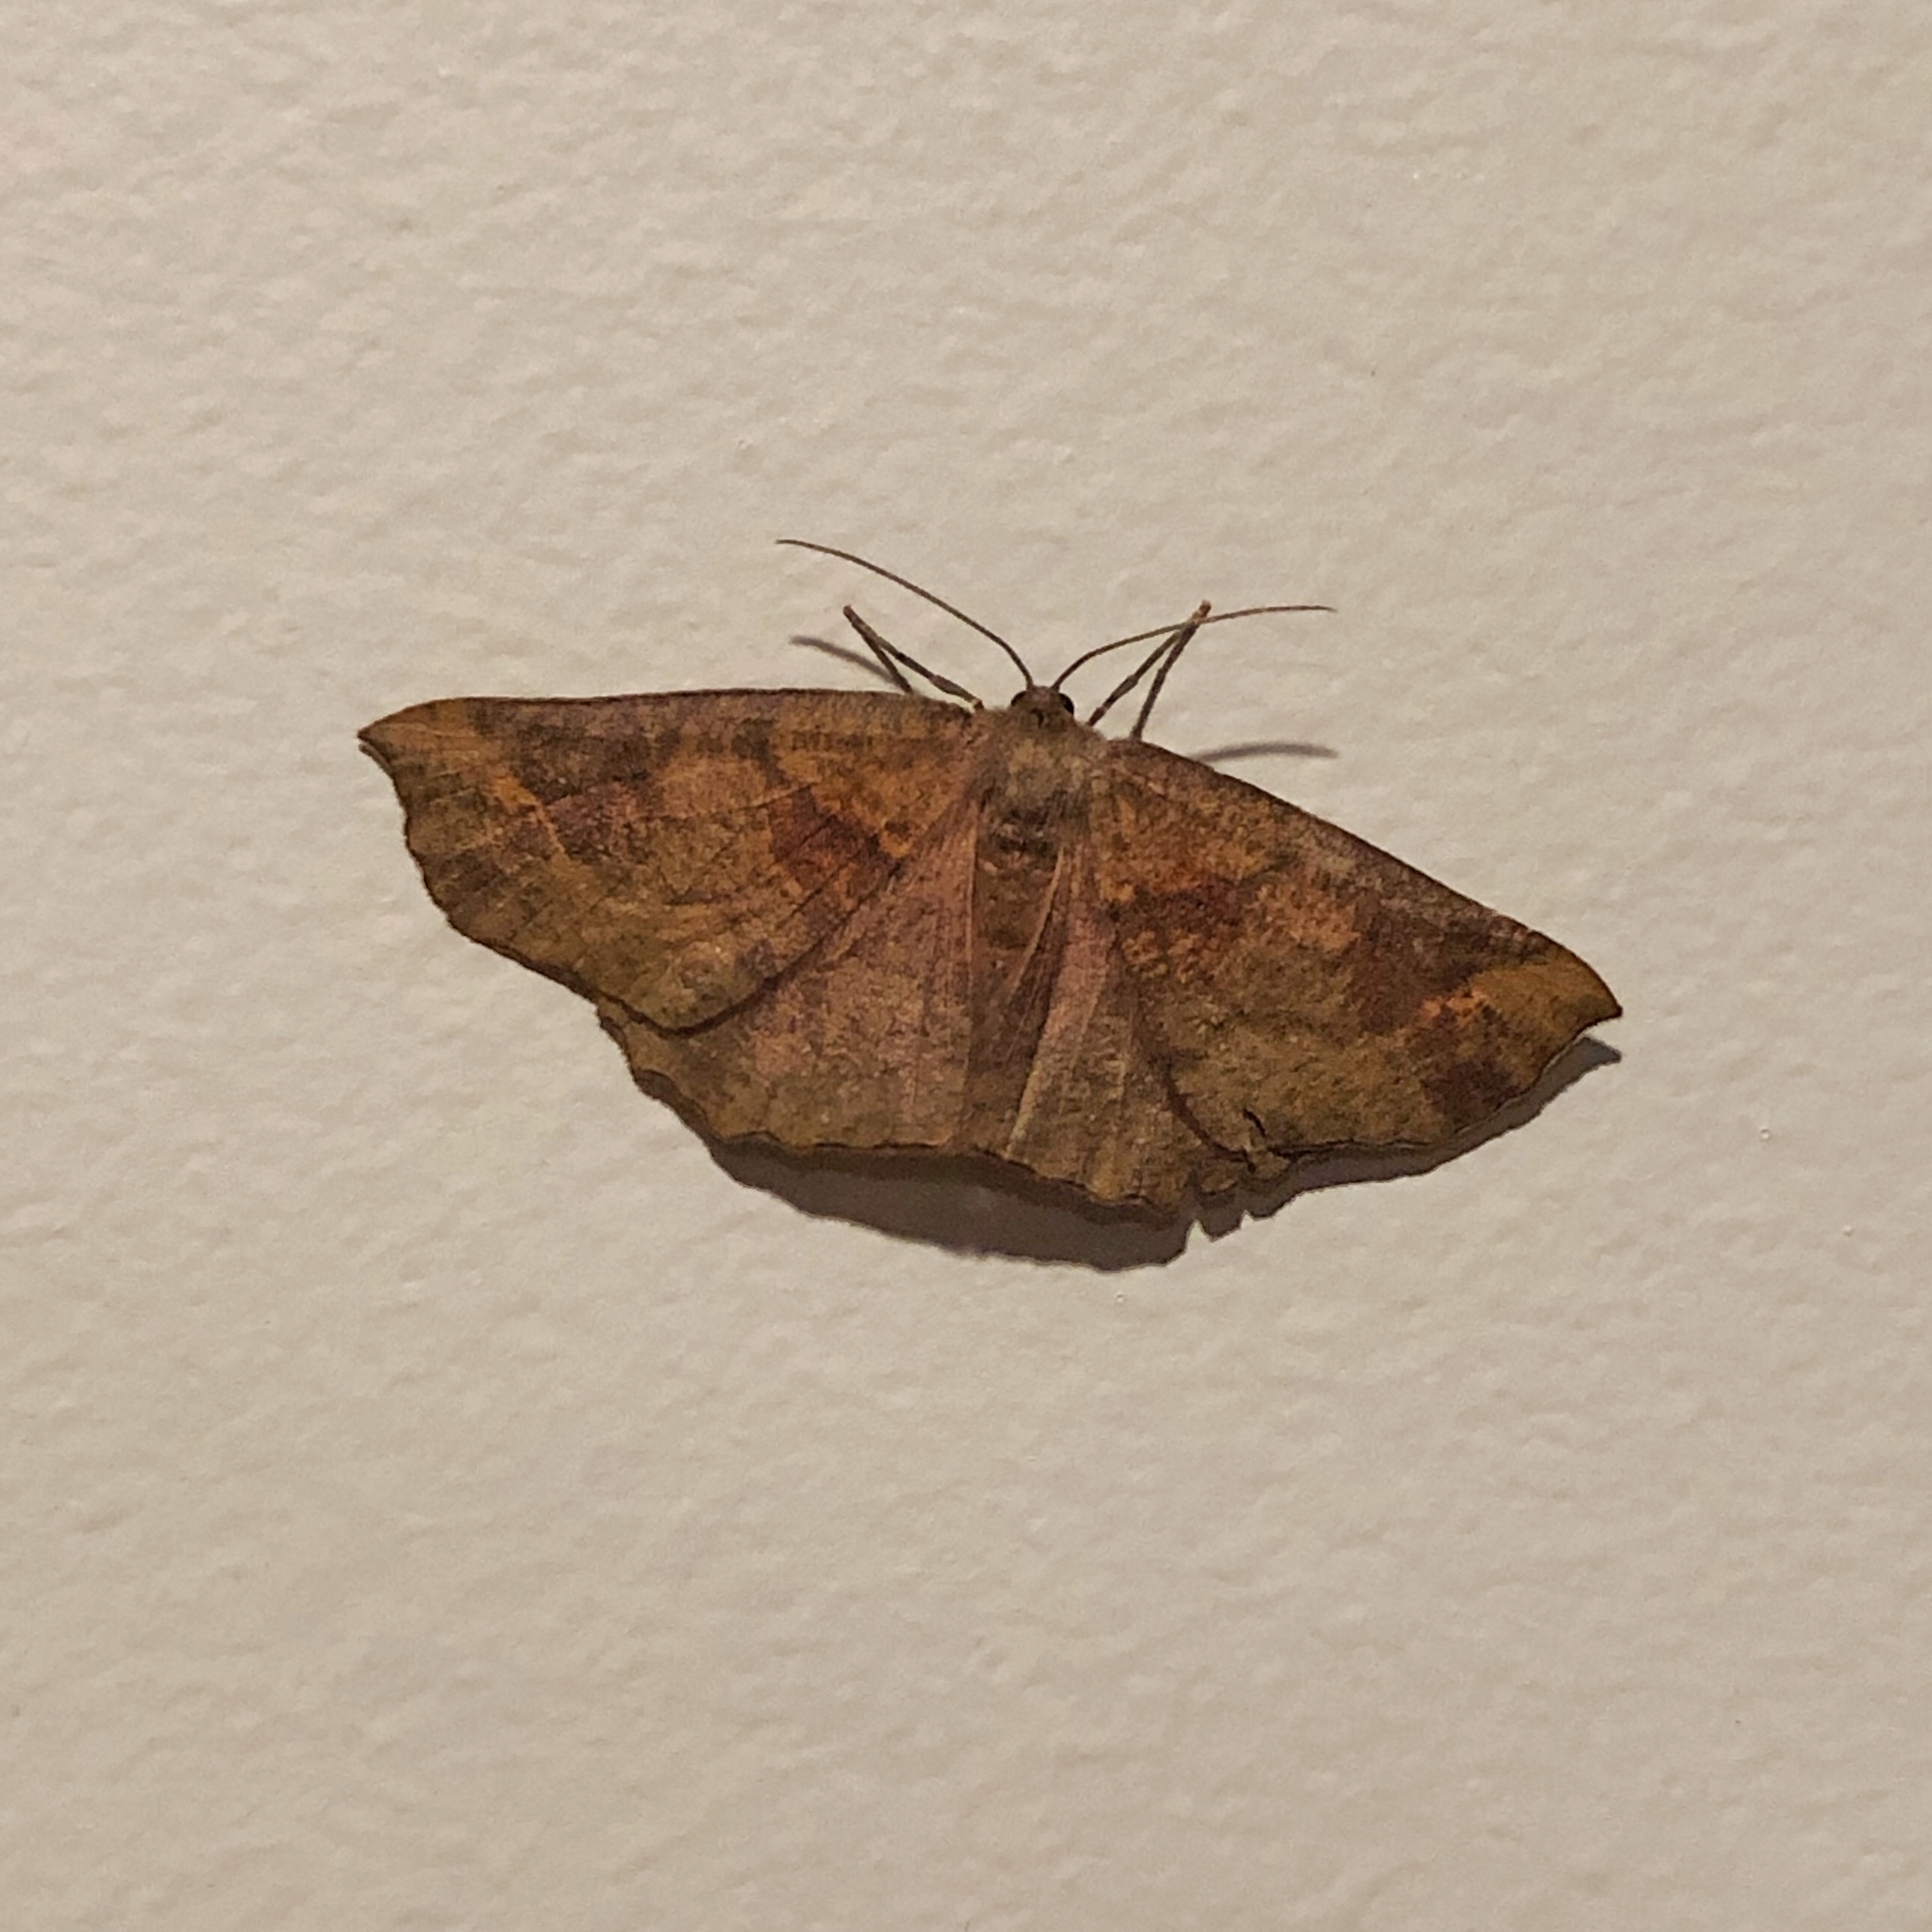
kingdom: Animalia
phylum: Arthropoda
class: Insecta
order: Lepidoptera
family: Geometridae
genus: Xyridacma
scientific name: Xyridacma ustaria
